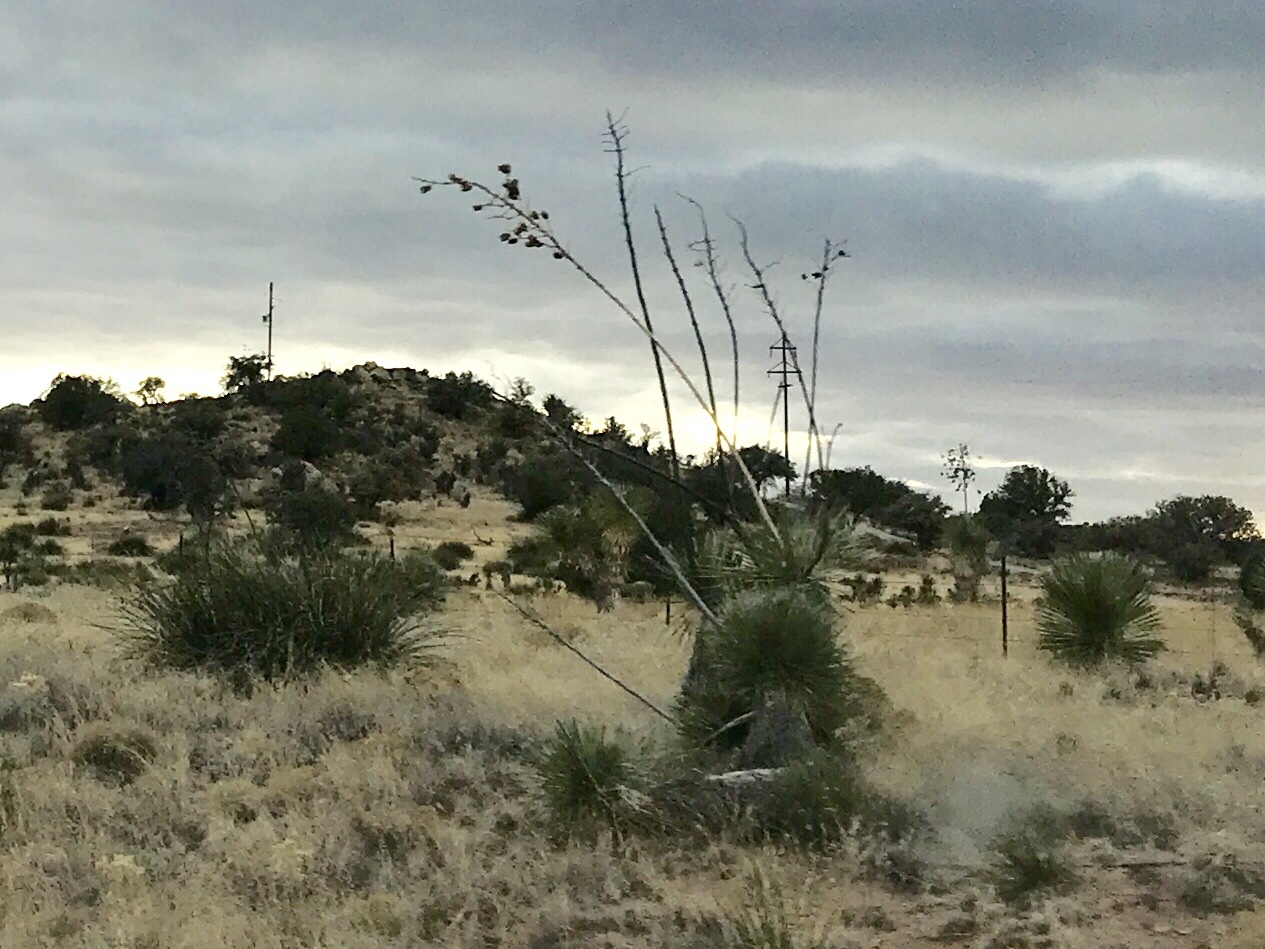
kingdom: Plantae
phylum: Tracheophyta
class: Liliopsida
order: Asparagales
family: Asparagaceae
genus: Yucca
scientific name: Yucca elata
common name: Palmella
